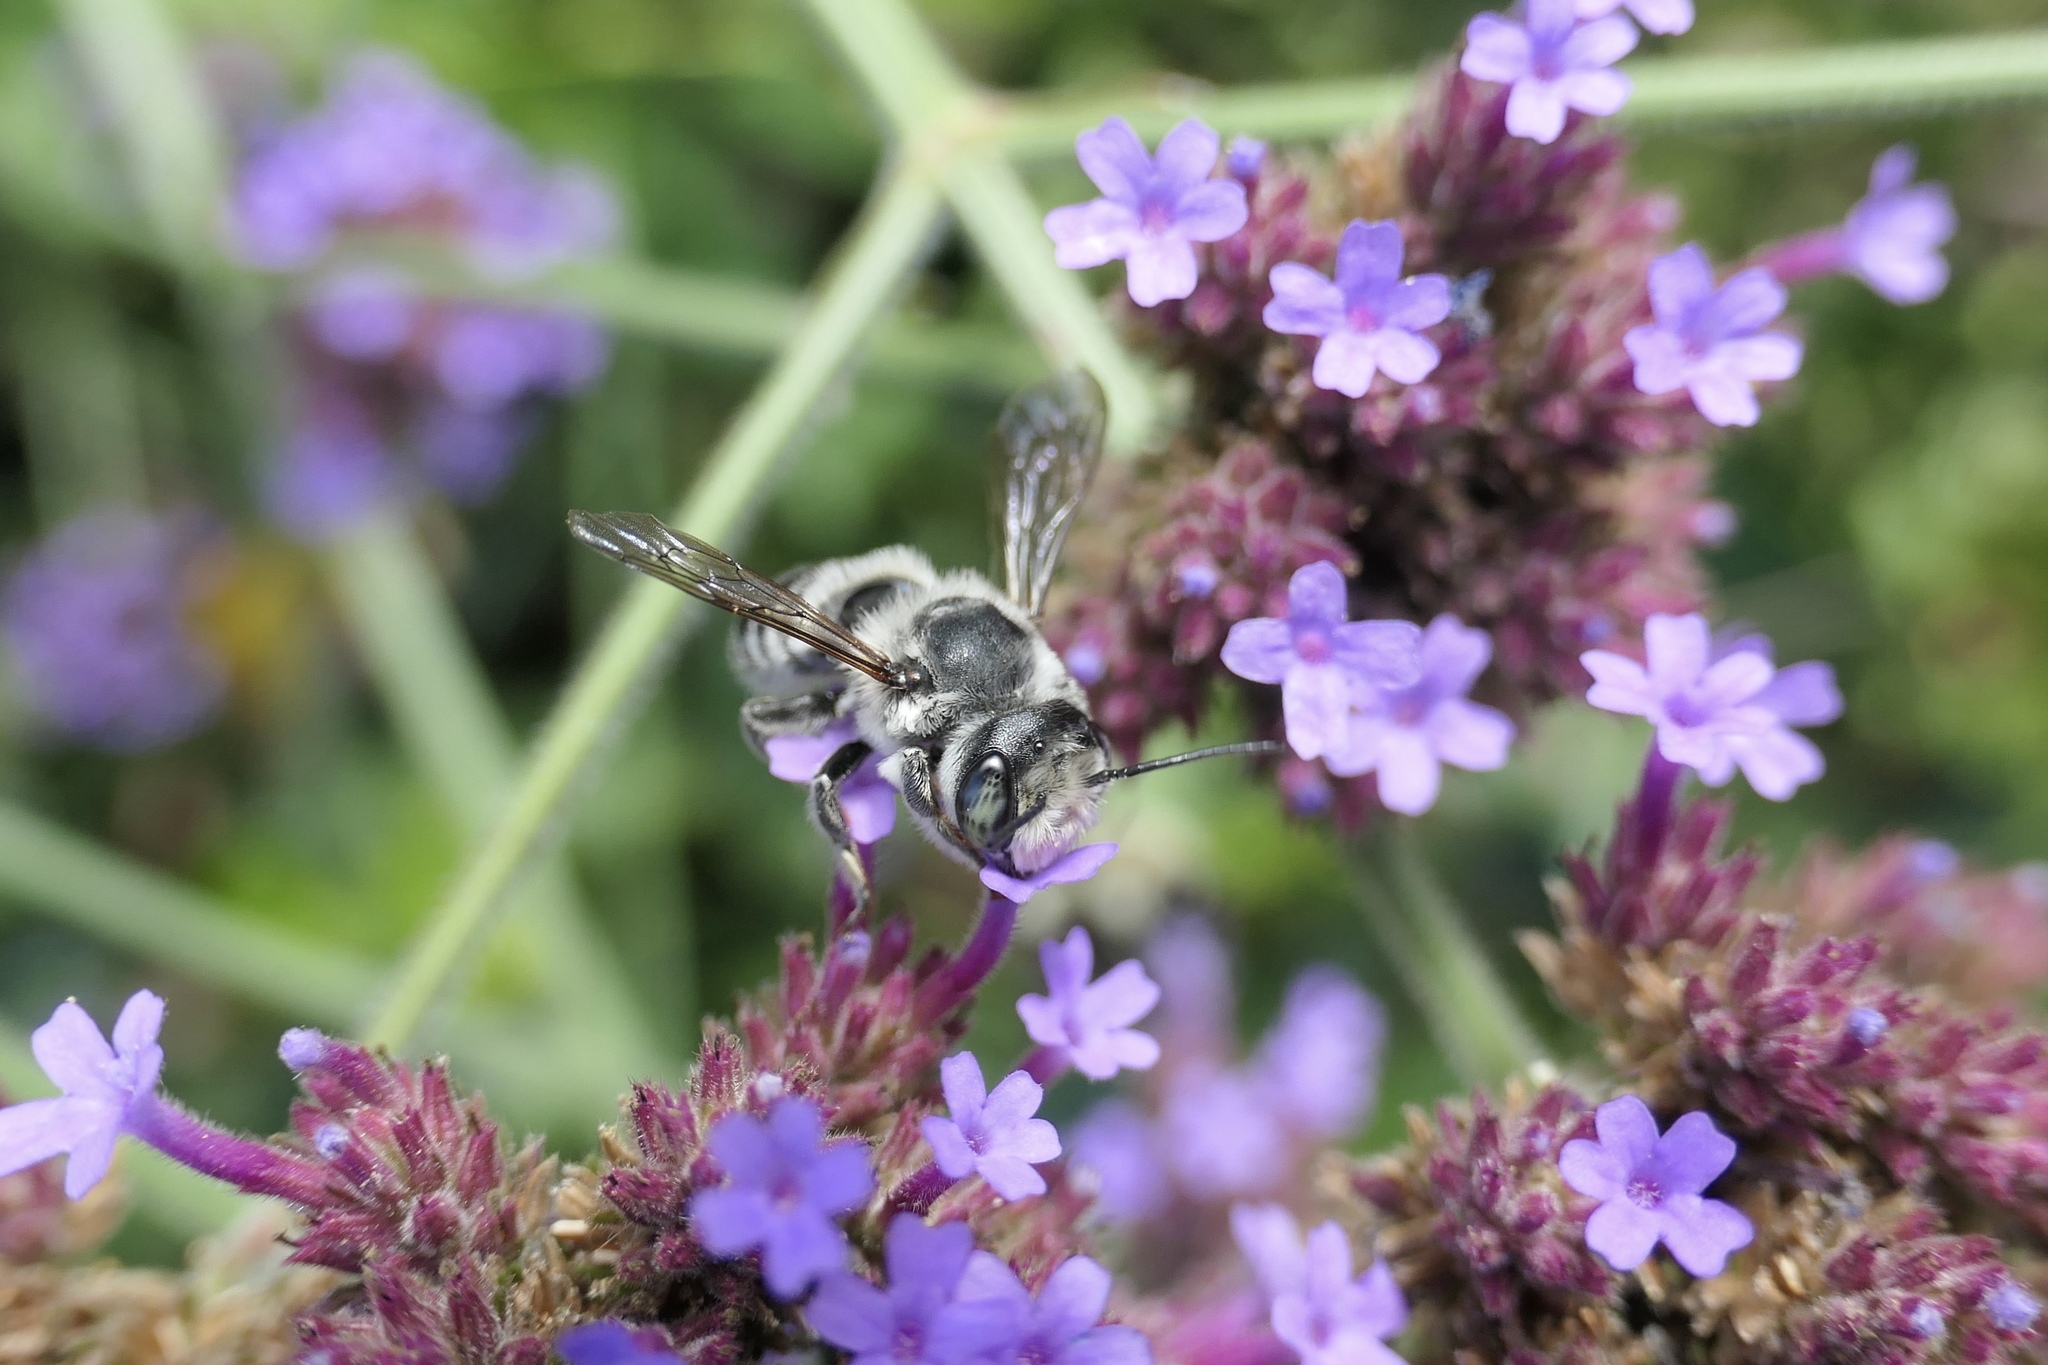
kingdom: Animalia
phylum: Arthropoda
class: Insecta
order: Hymenoptera
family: Megachilidae
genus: Megachile
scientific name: Megachile
